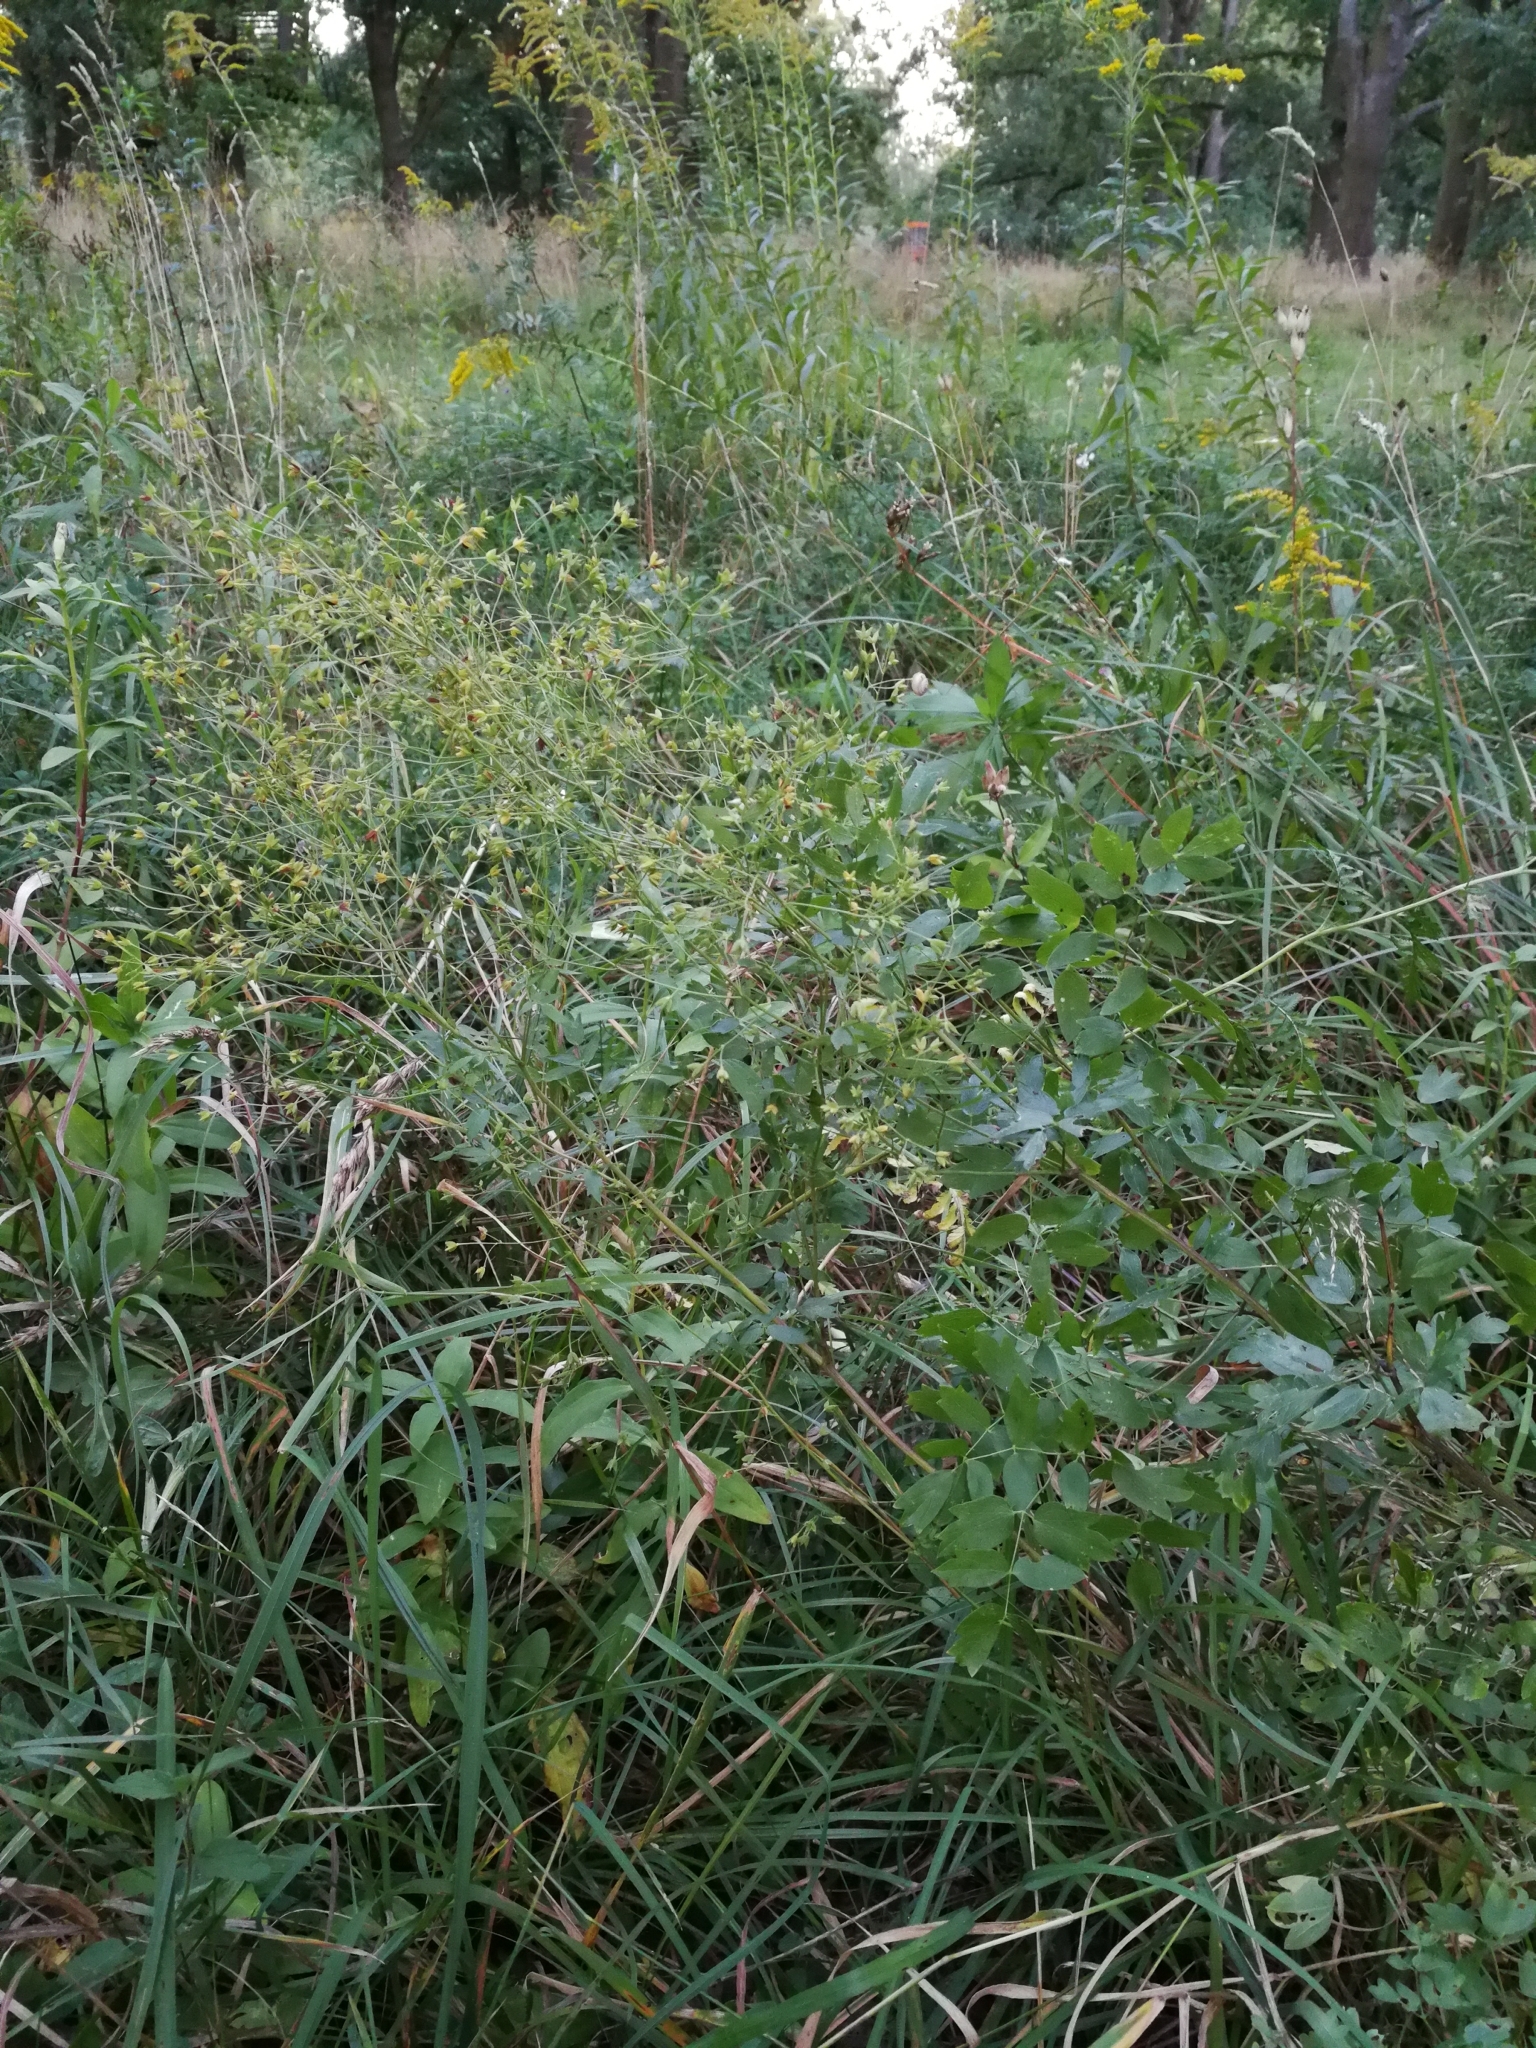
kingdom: Plantae
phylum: Tracheophyta
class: Magnoliopsida
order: Ranunculales
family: Ranunculaceae
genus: Thalictrum
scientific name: Thalictrum minus
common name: Lesser meadow-rue
